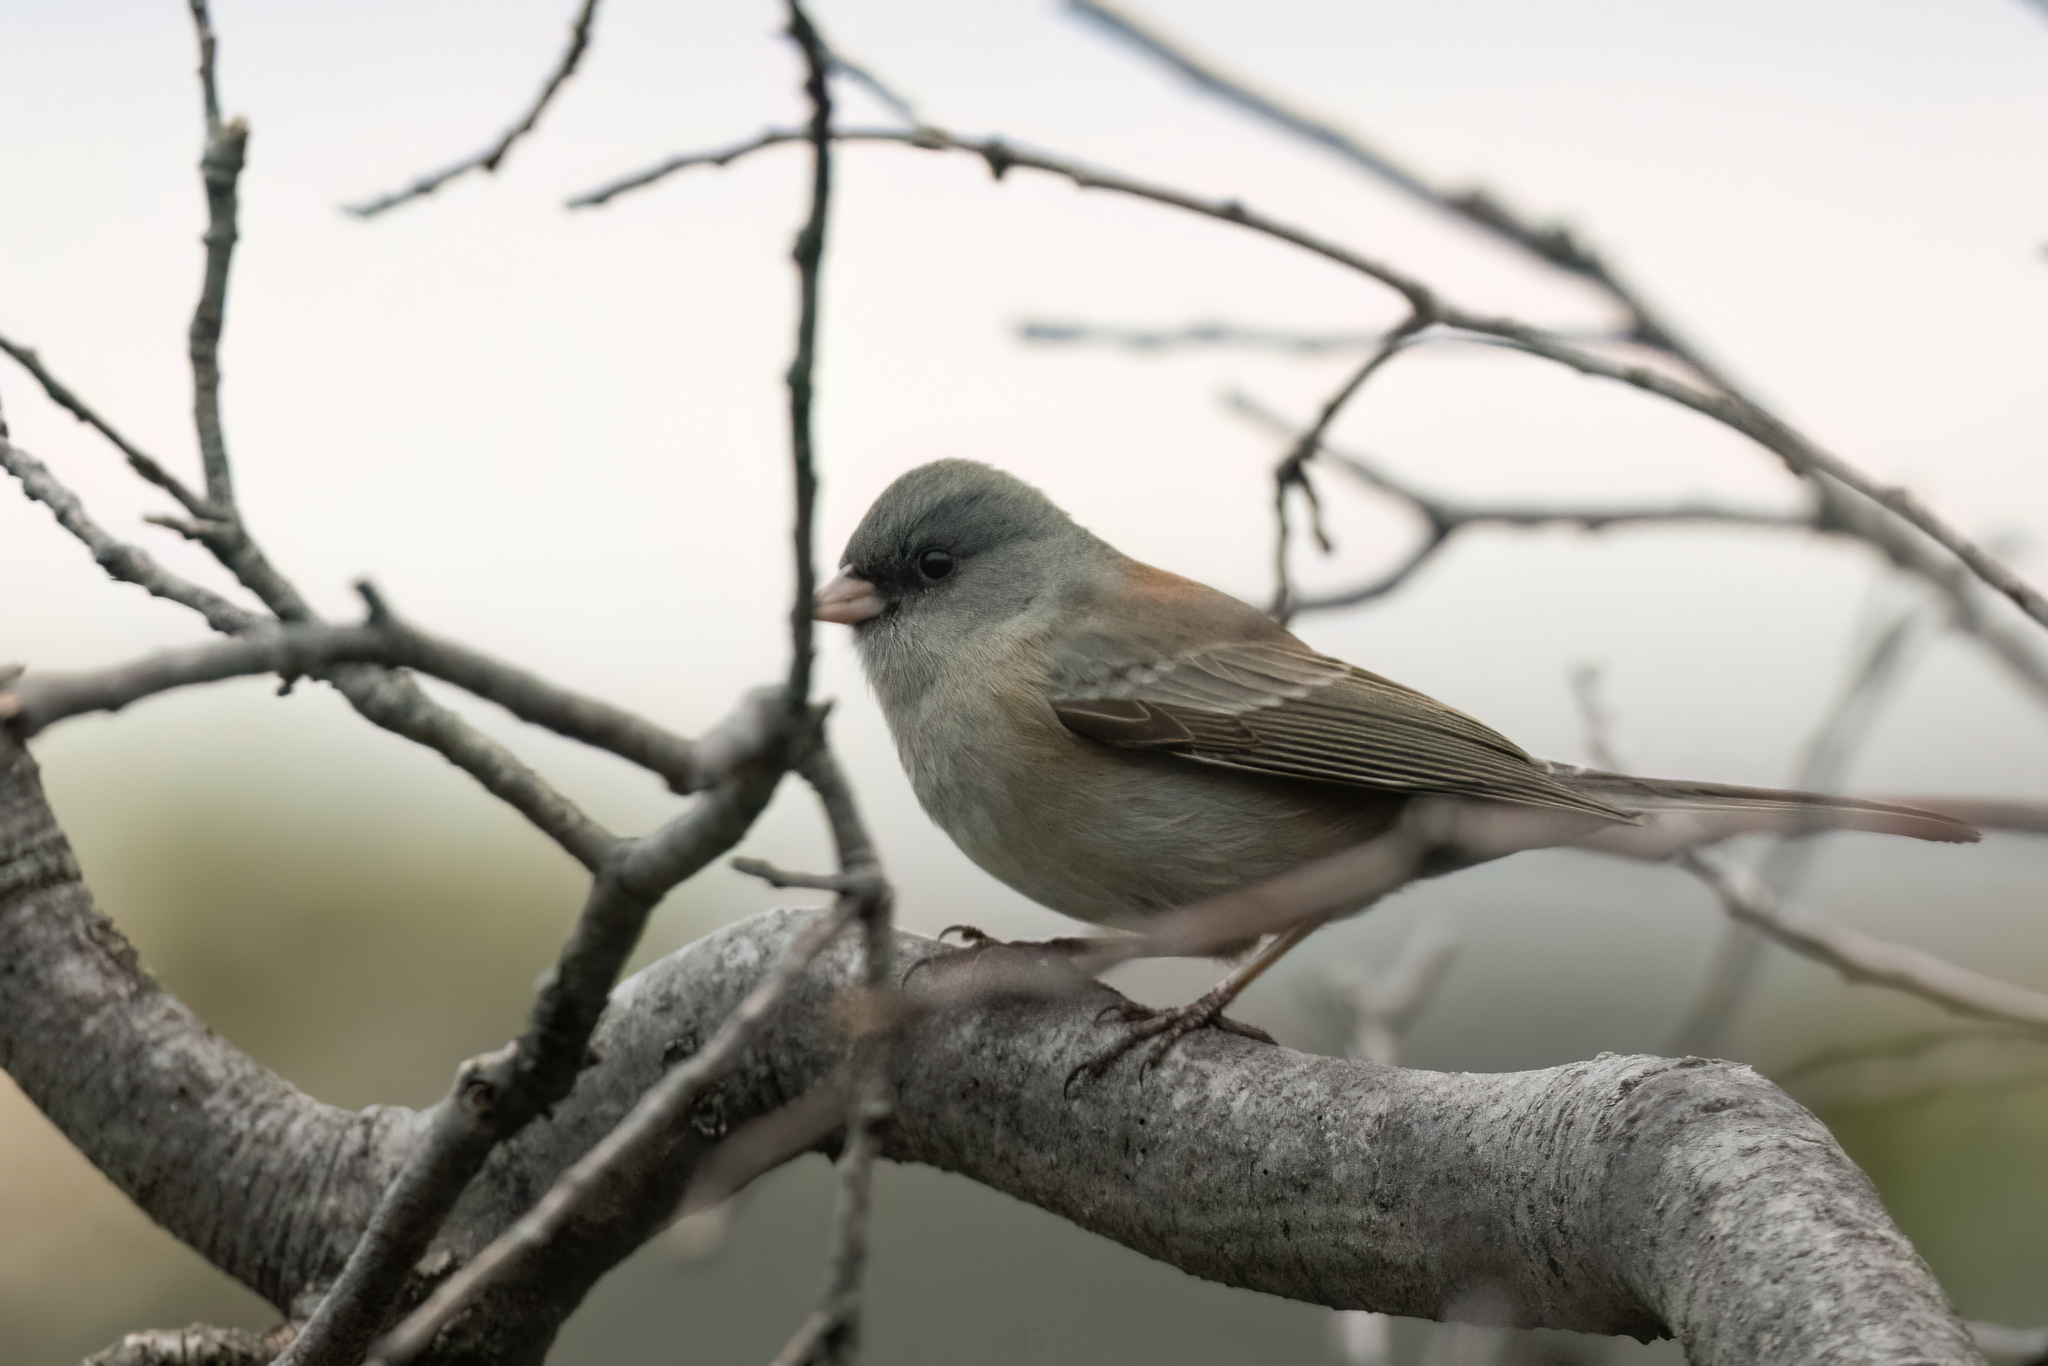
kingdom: Animalia
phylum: Chordata
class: Aves
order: Passeriformes
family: Passerellidae
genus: Junco
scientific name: Junco hyemalis
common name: Dark-eyed junco
